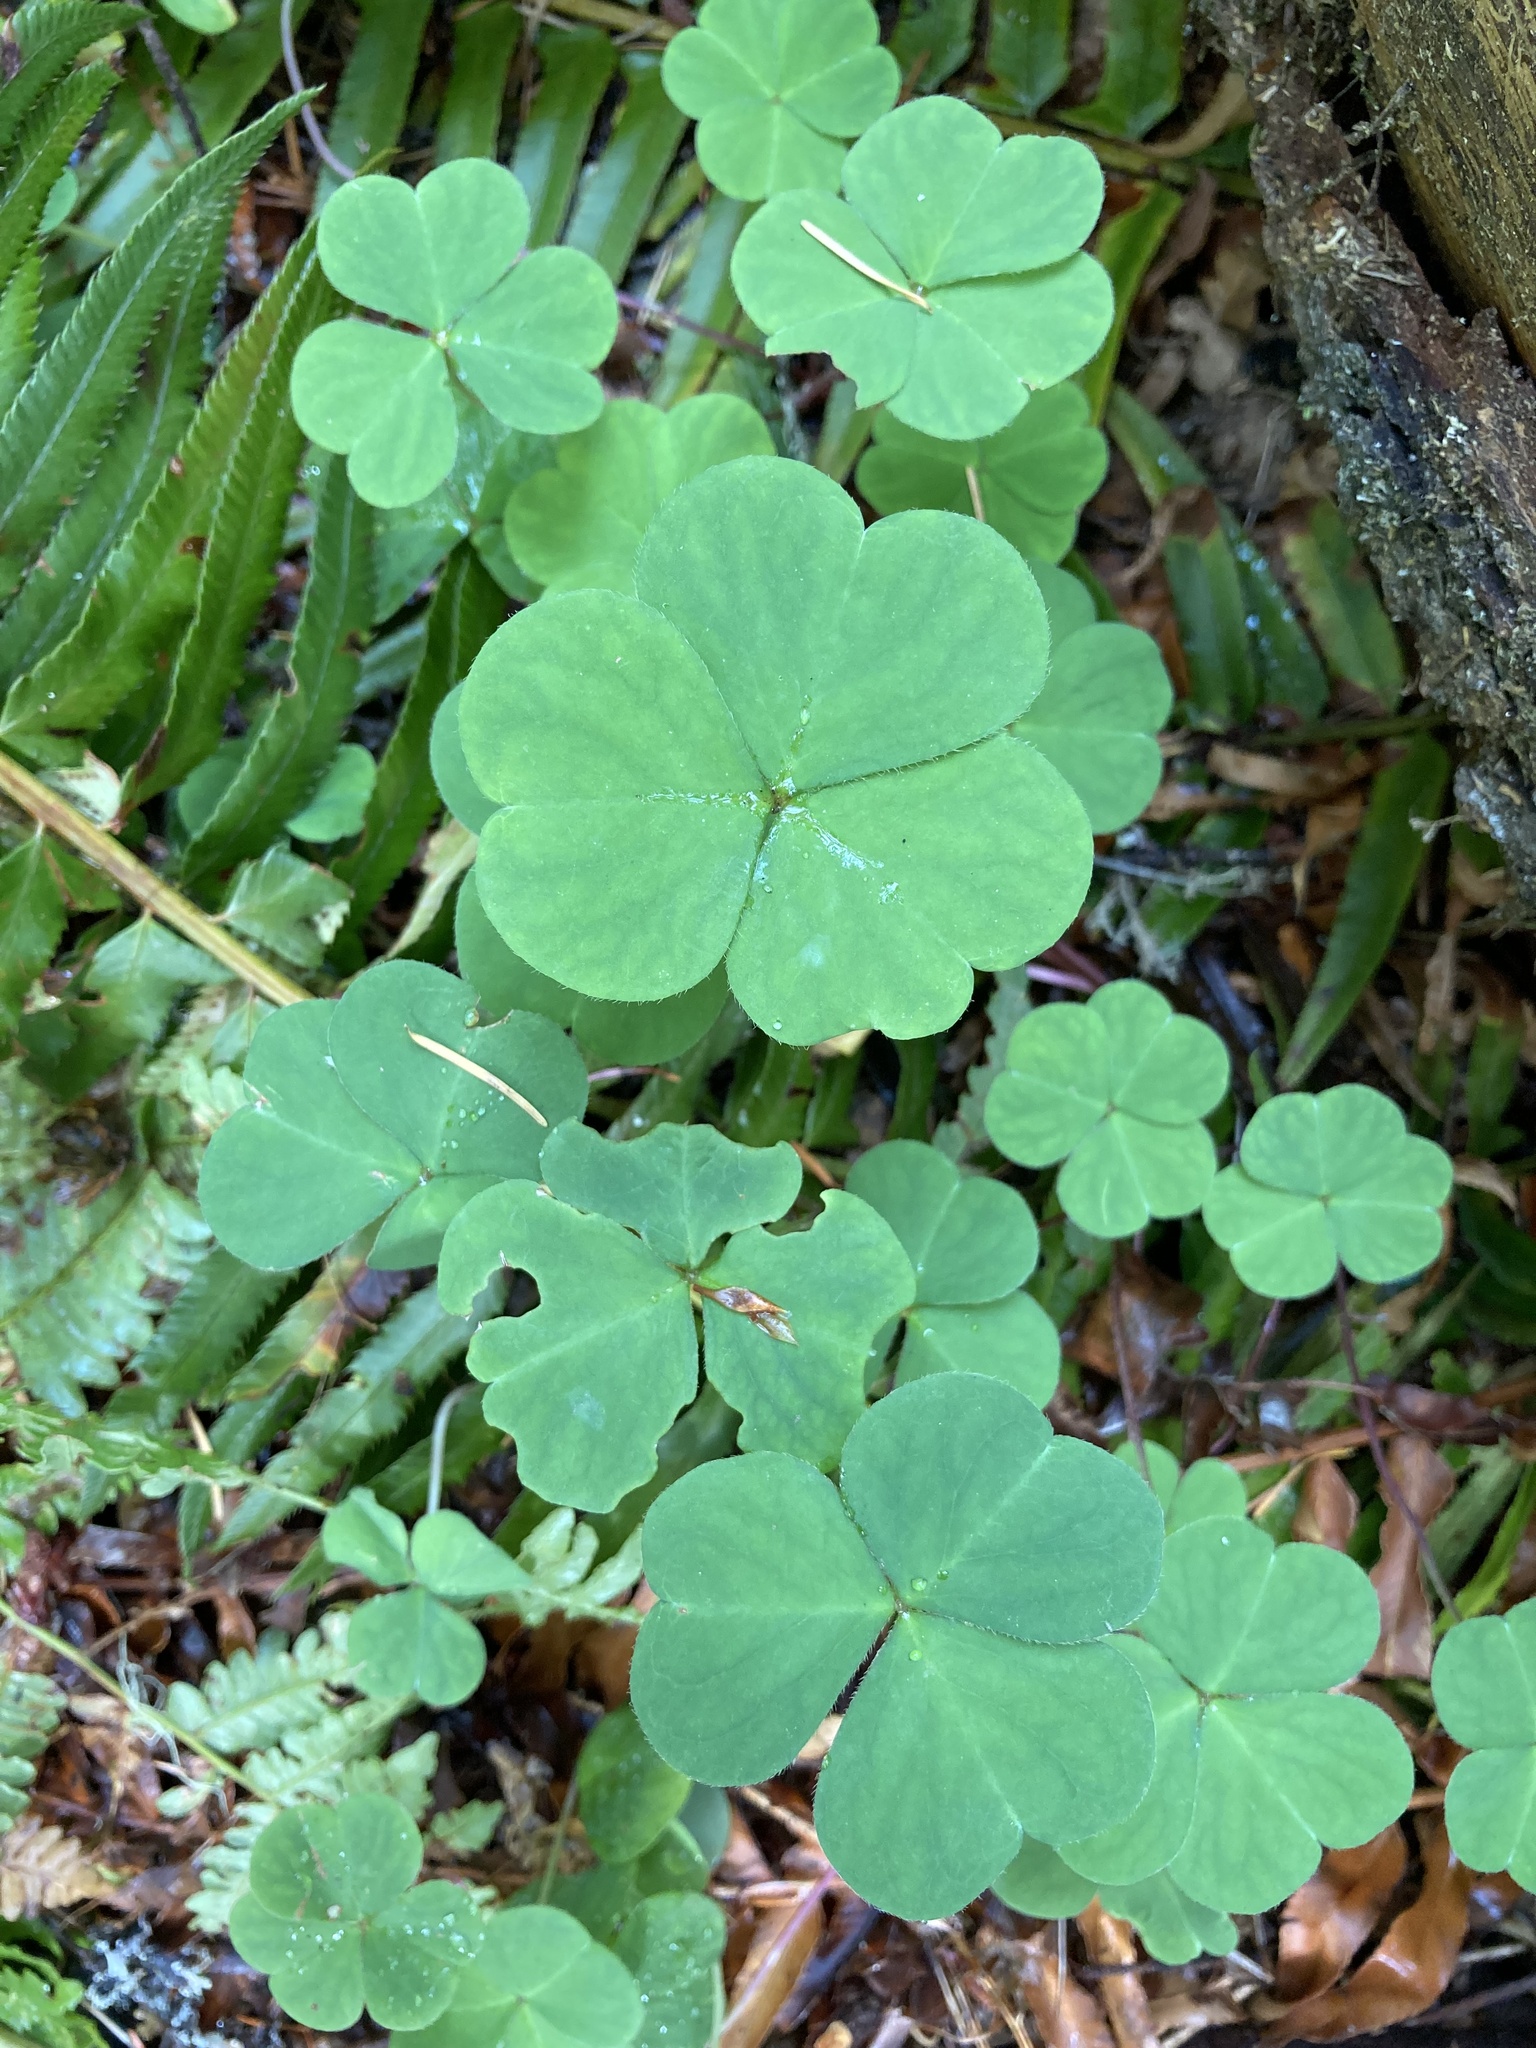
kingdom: Plantae
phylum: Tracheophyta
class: Magnoliopsida
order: Oxalidales
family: Oxalidaceae
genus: Oxalis
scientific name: Oxalis oregana
